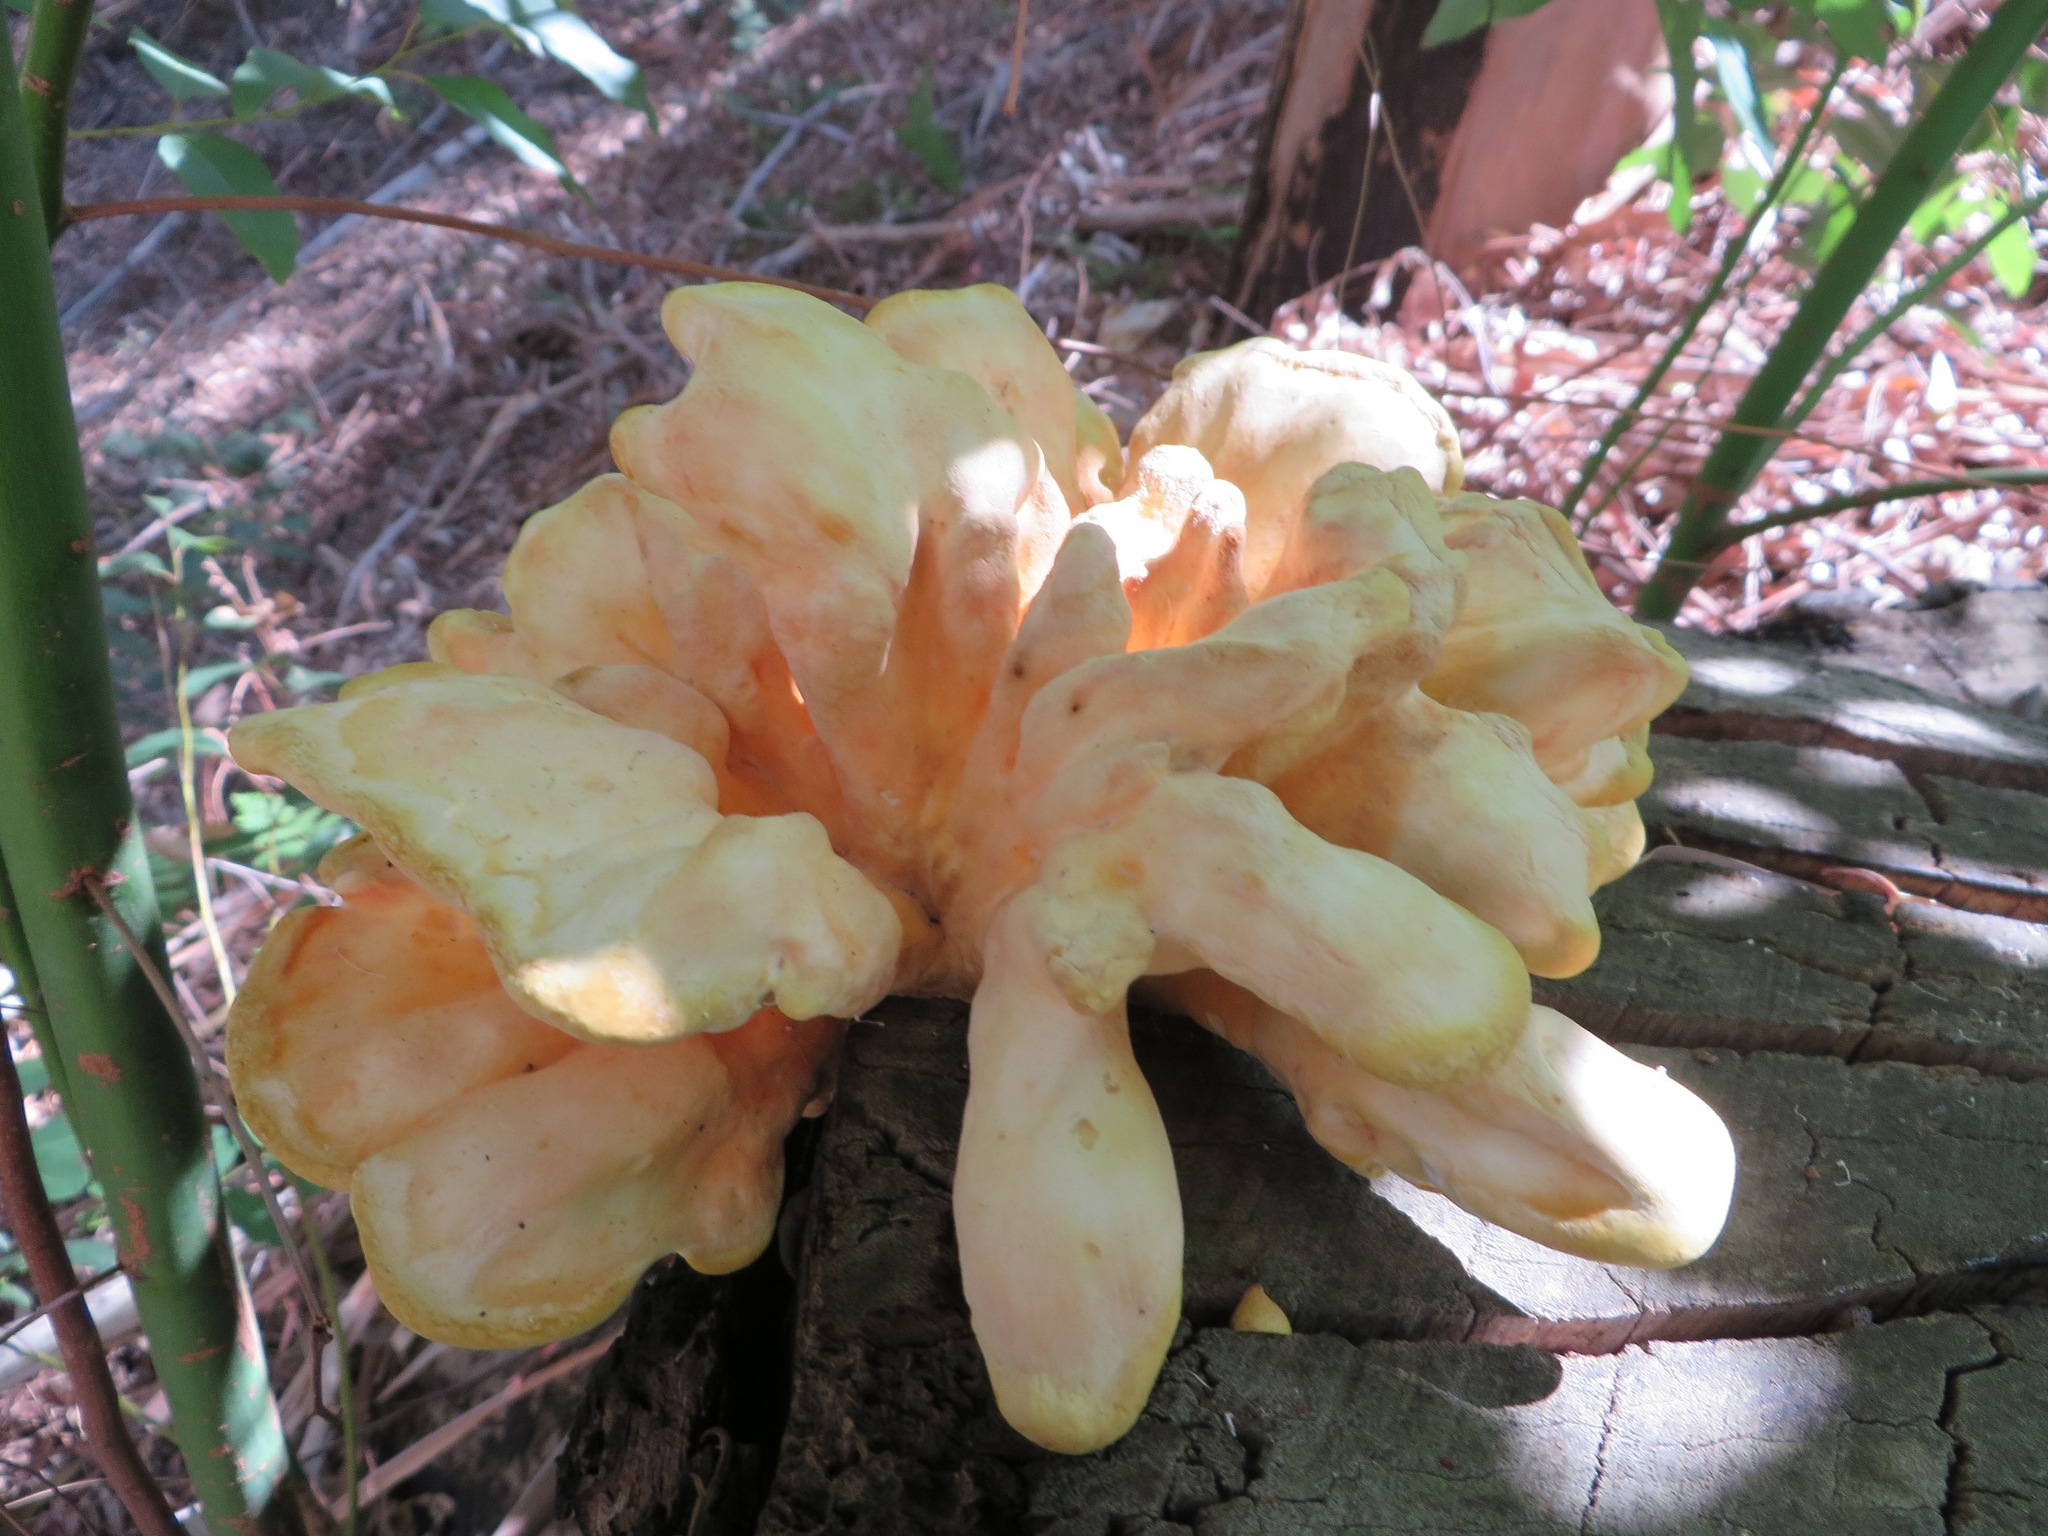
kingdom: Fungi
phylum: Basidiomycota
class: Agaricomycetes
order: Polyporales
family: Laetiporaceae
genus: Laetiporus
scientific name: Laetiporus sulphureus
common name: Chicken of the woods
